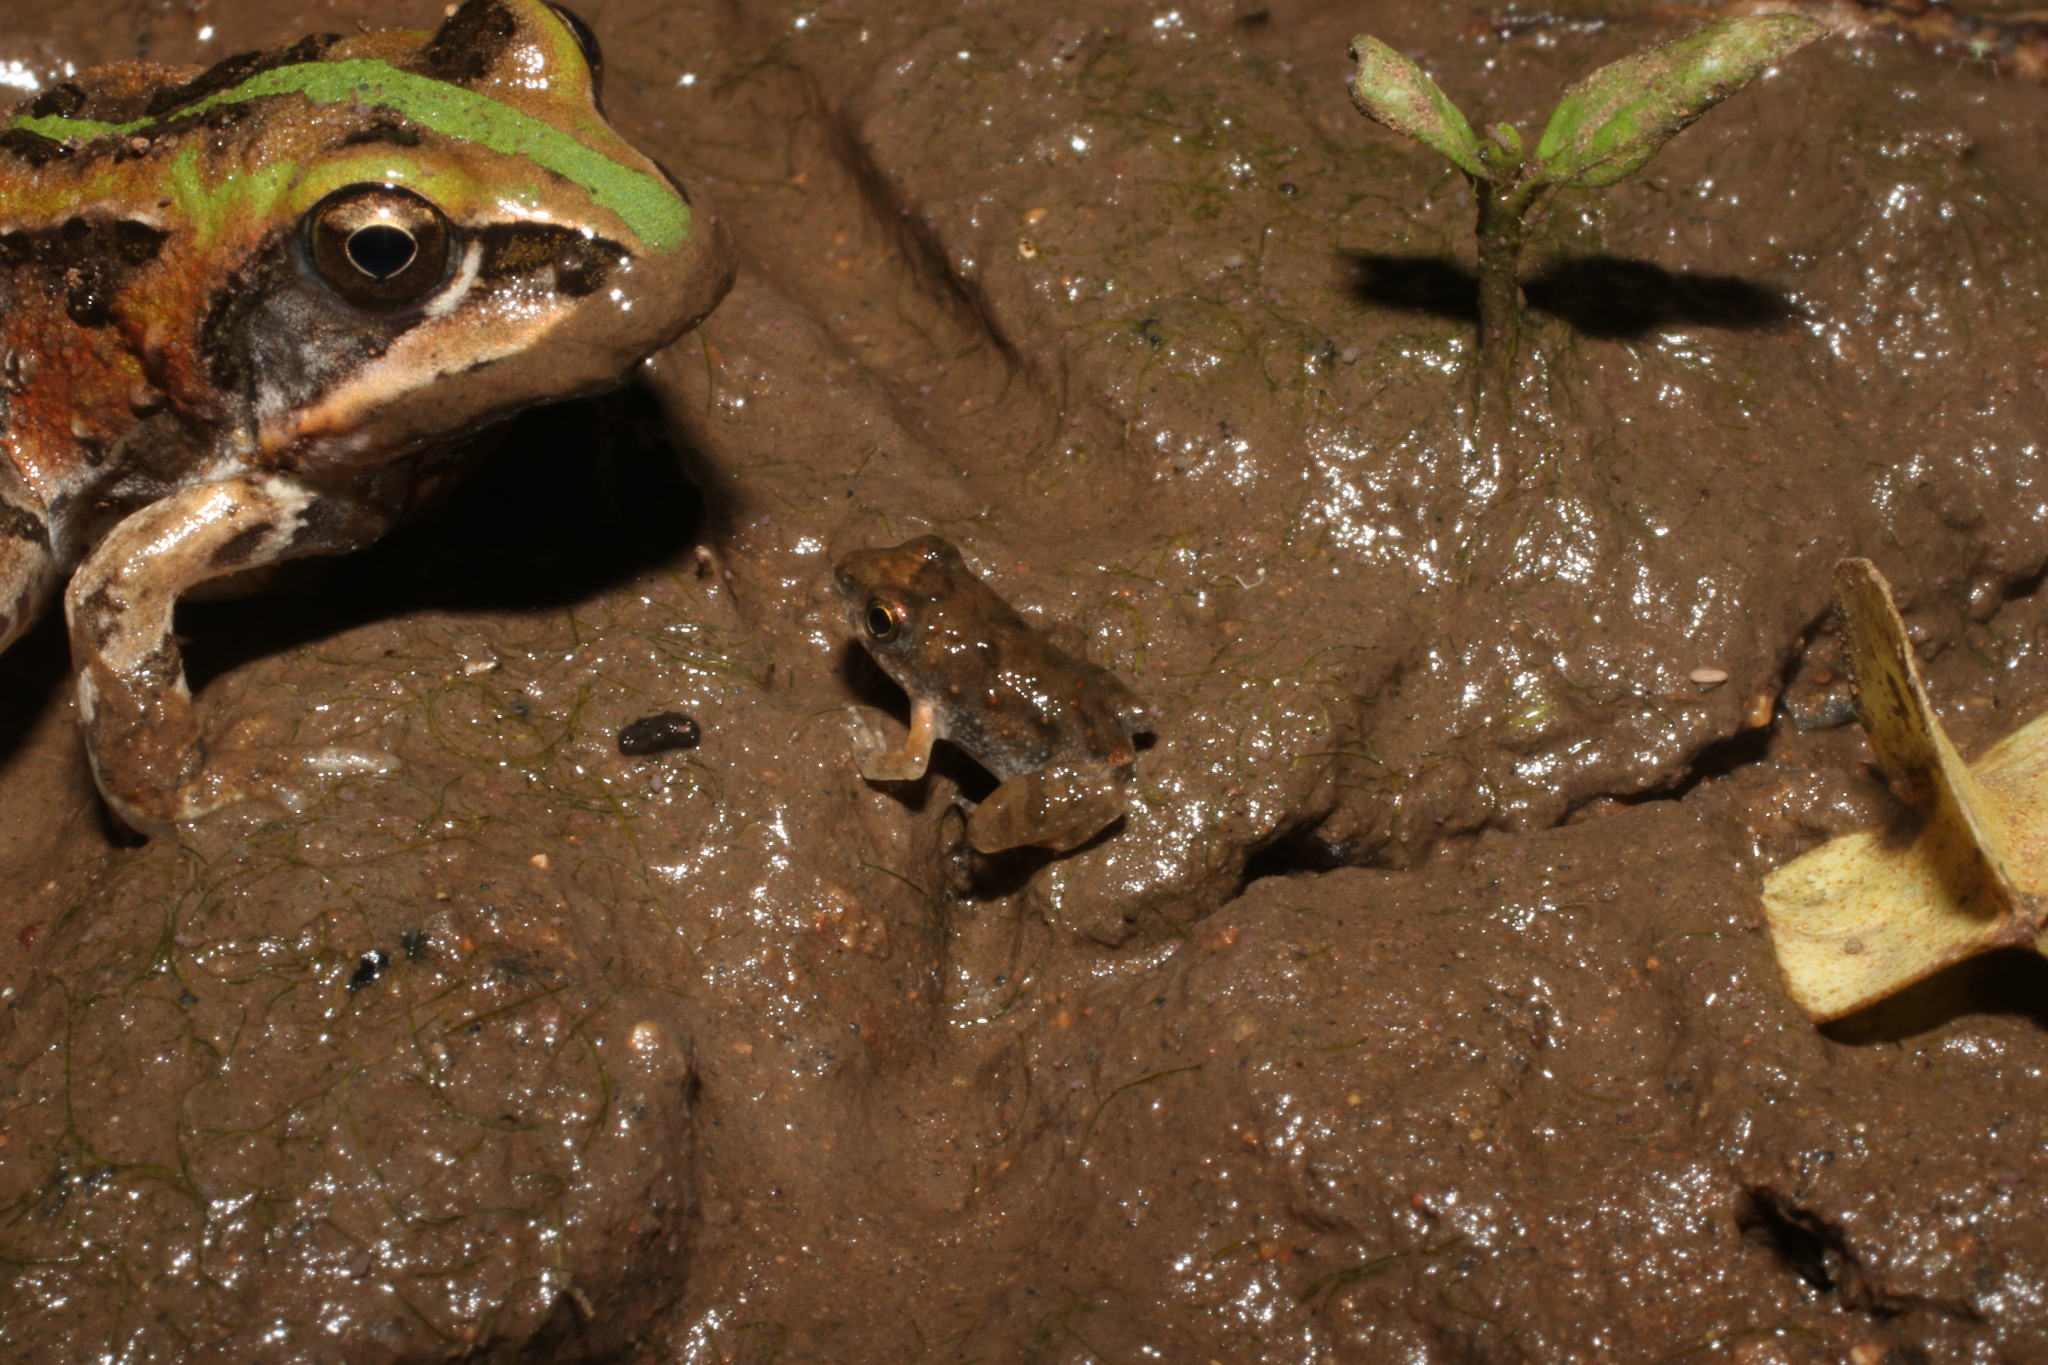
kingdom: Animalia
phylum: Chordata
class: Amphibia
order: Anura
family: Phrynobatrachidae
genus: Phrynobatrachus
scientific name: Phrynobatrachus natalensis
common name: Snoring puddle frog
